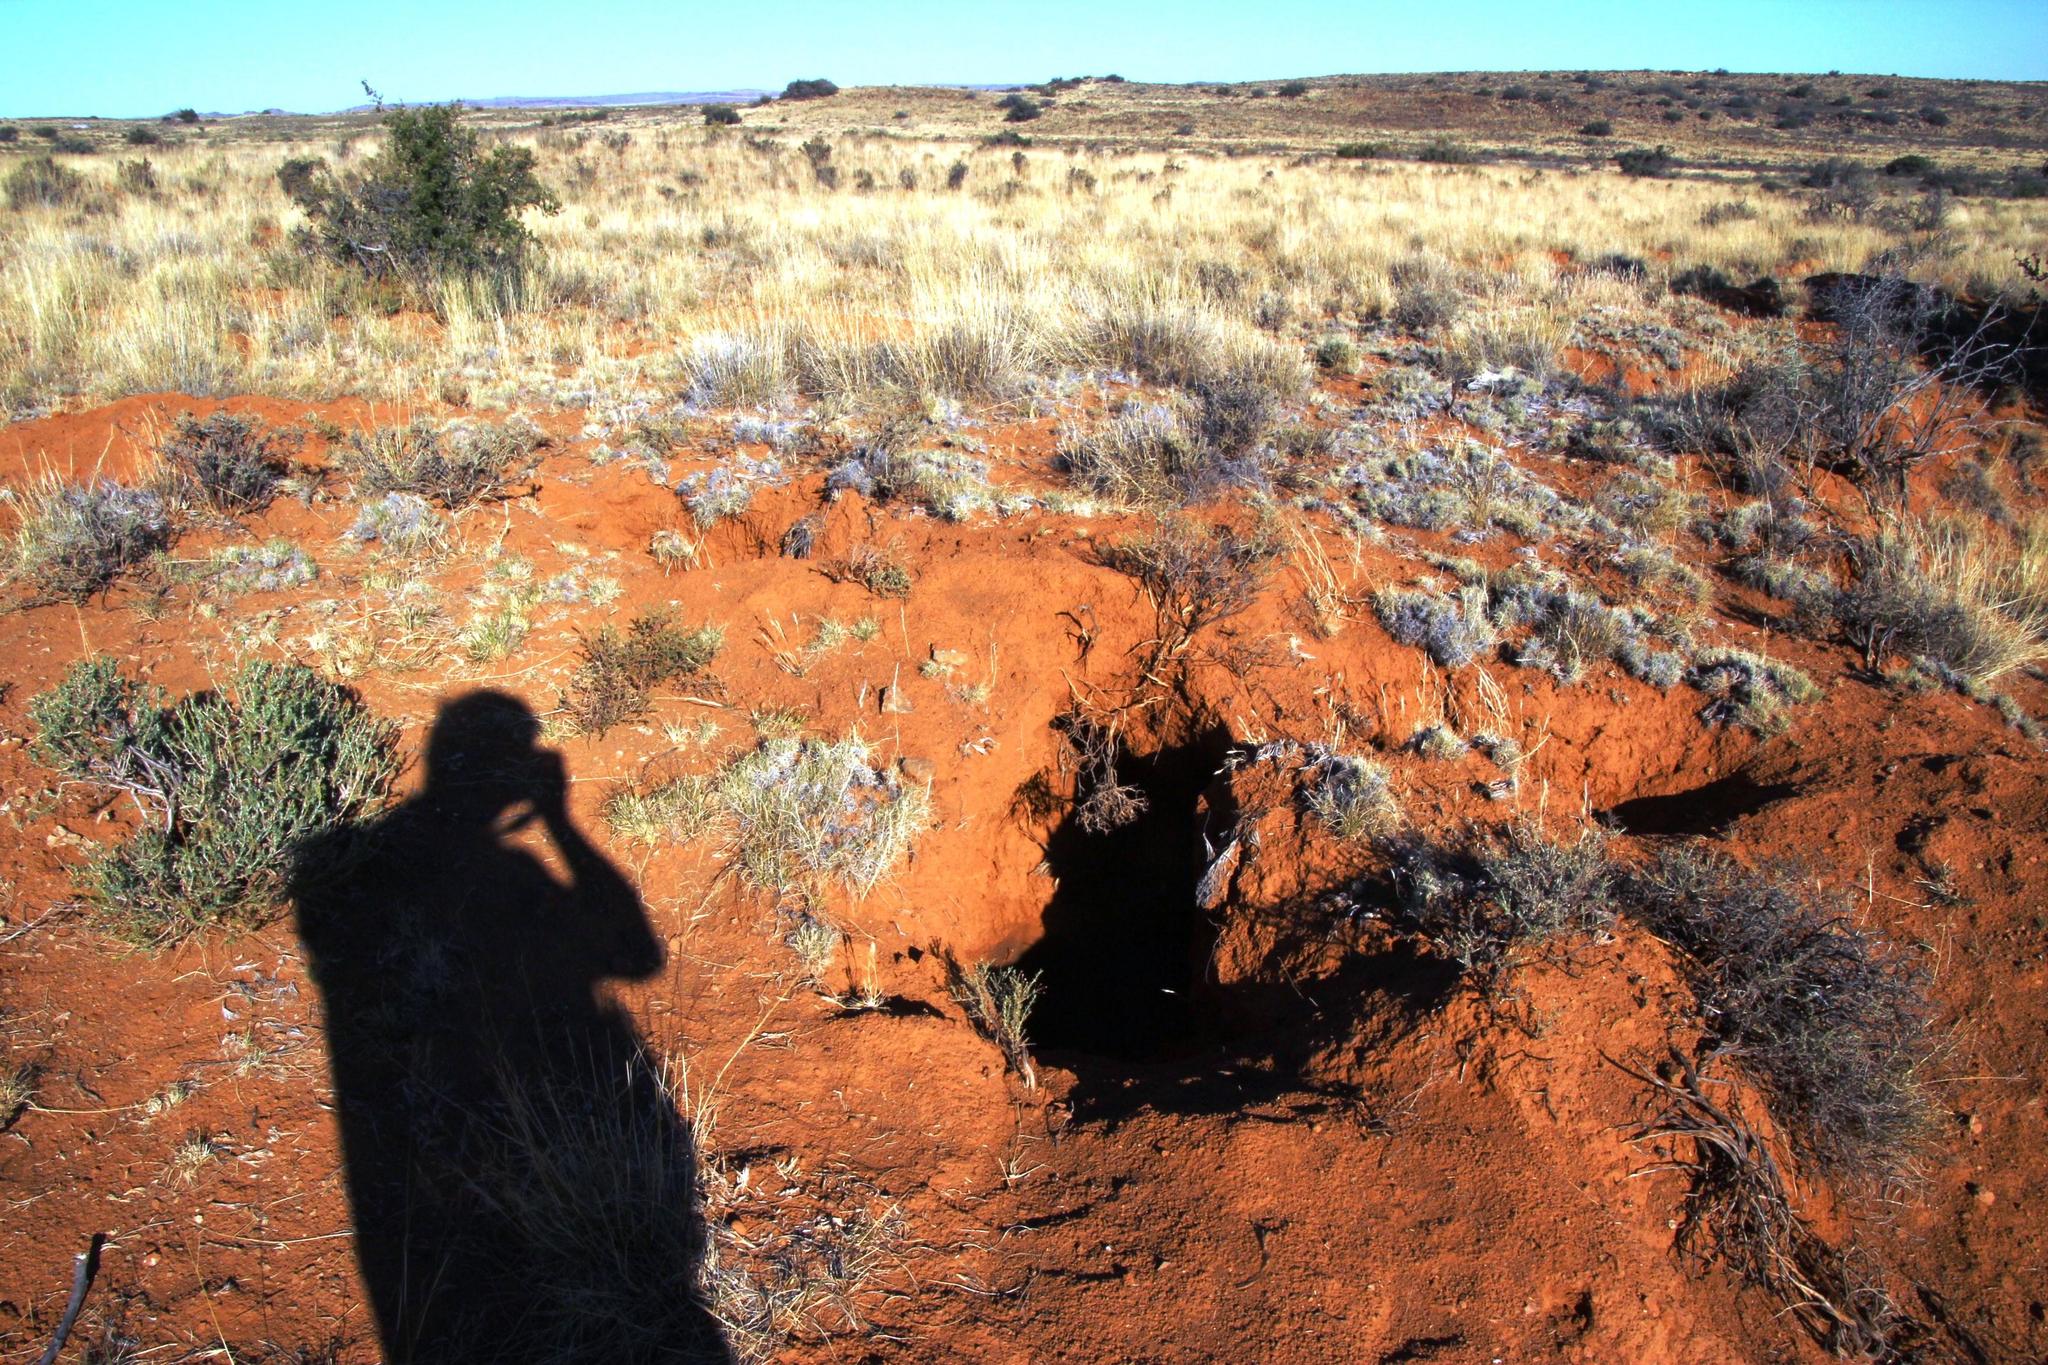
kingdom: Animalia
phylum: Chordata
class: Mammalia
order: Tubulidentata
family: Orycteropodidae
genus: Orycteropus
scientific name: Orycteropus afer
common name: Aardvark
